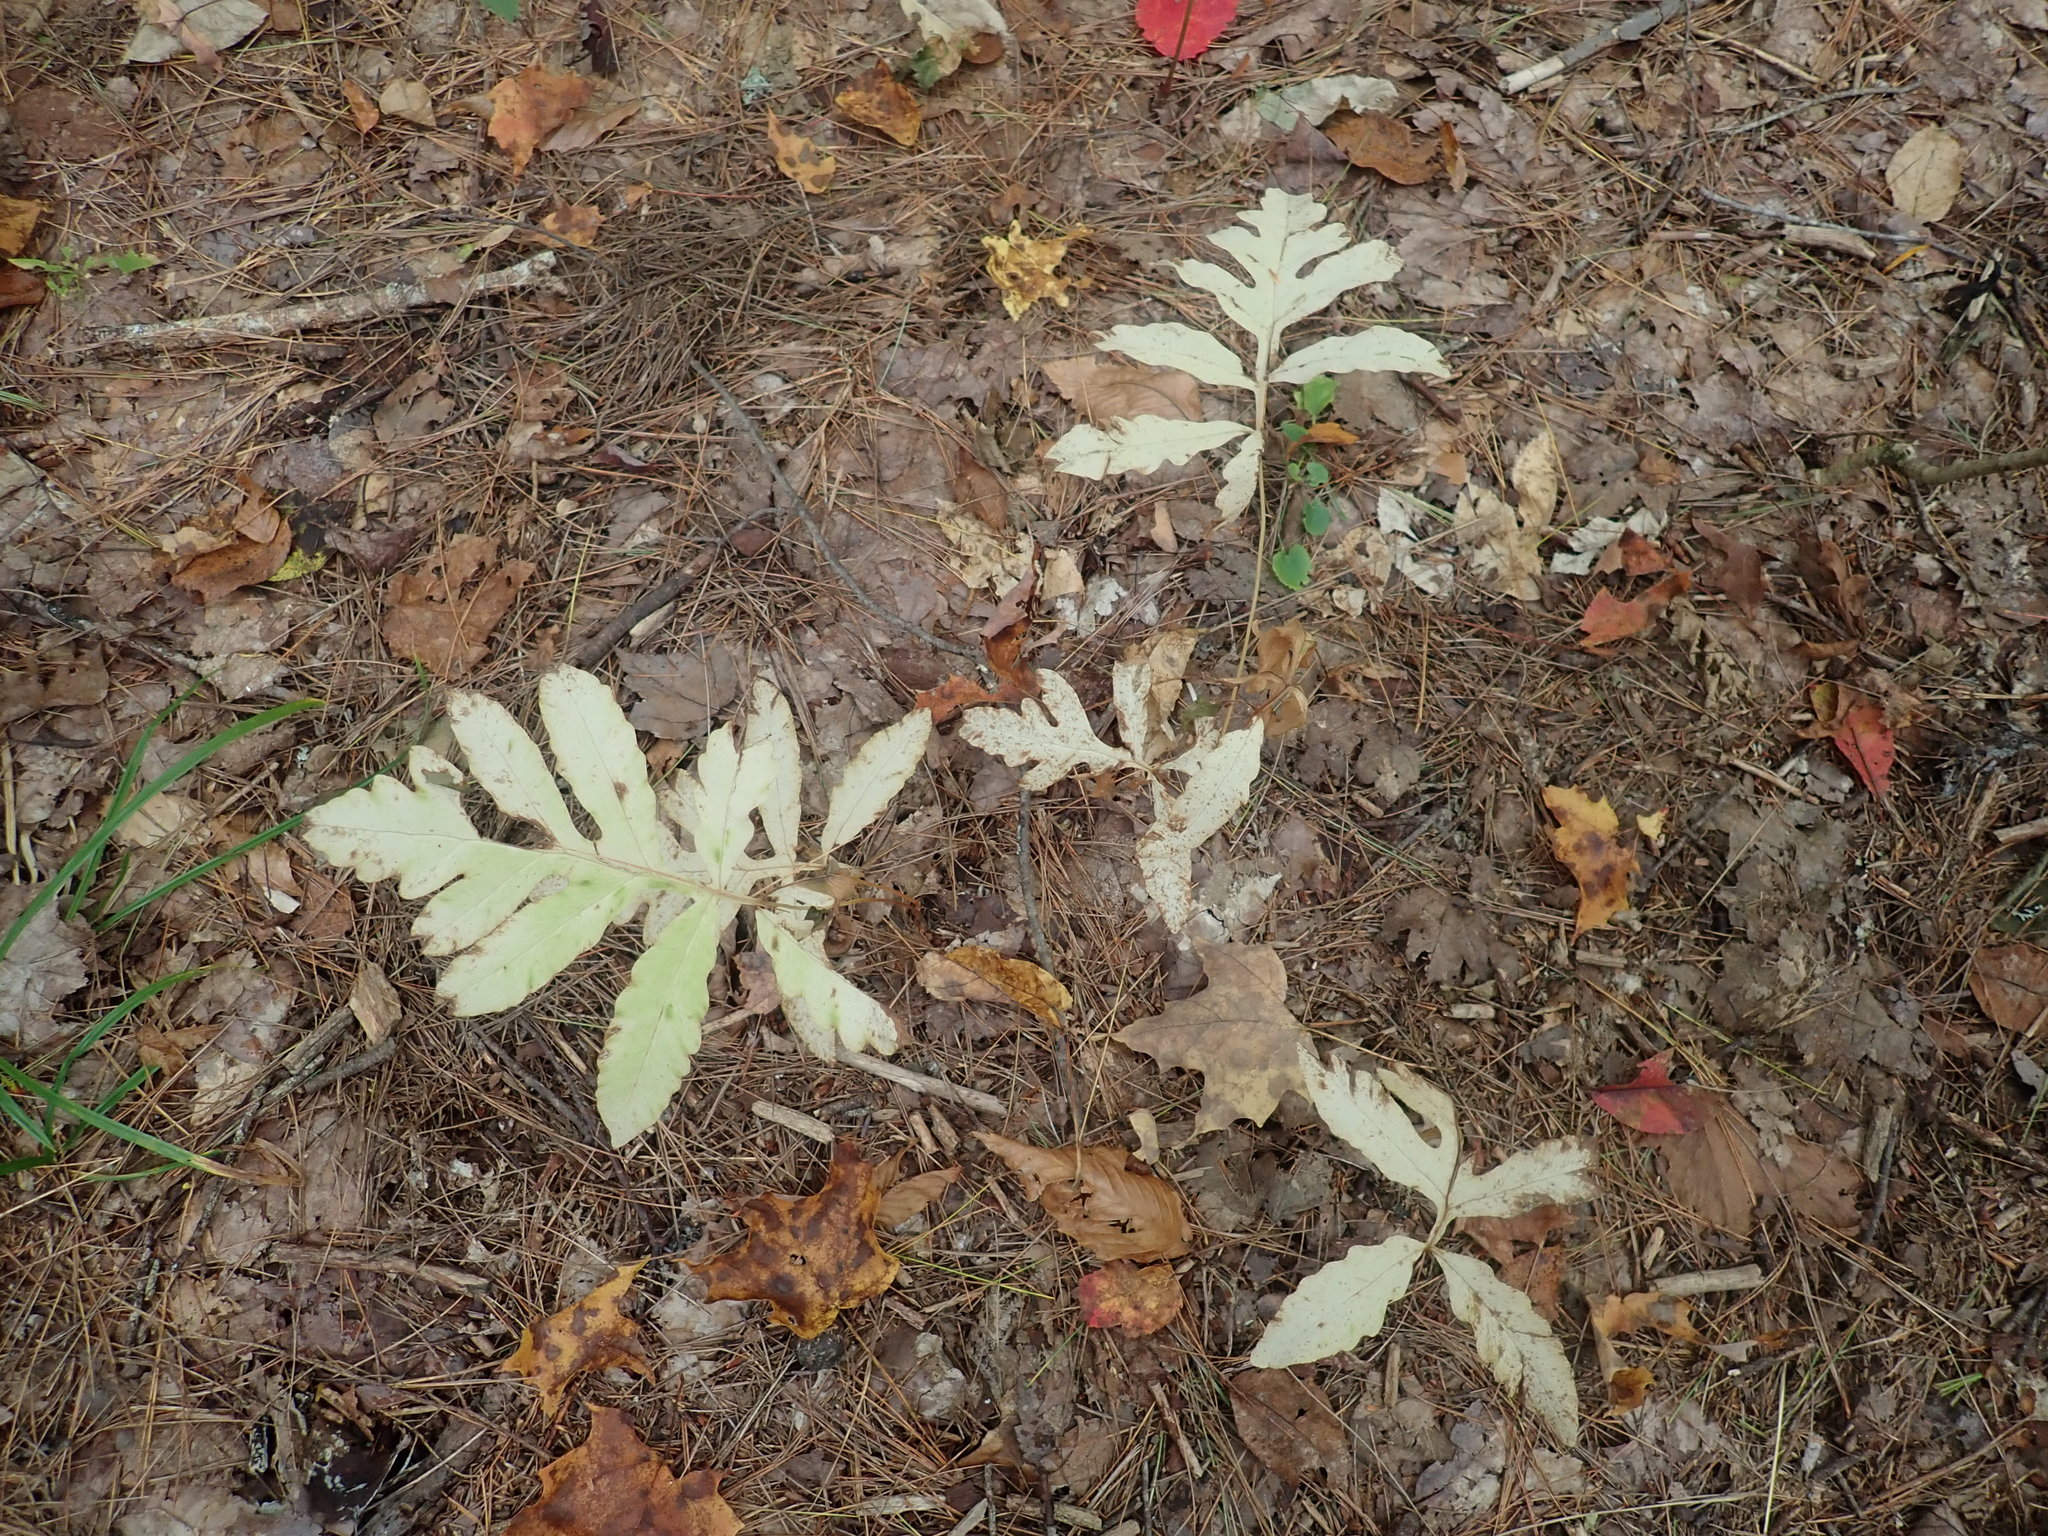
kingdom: Plantae
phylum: Tracheophyta
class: Polypodiopsida
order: Polypodiales
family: Onocleaceae
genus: Onoclea
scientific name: Onoclea sensibilis
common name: Sensitive fern
